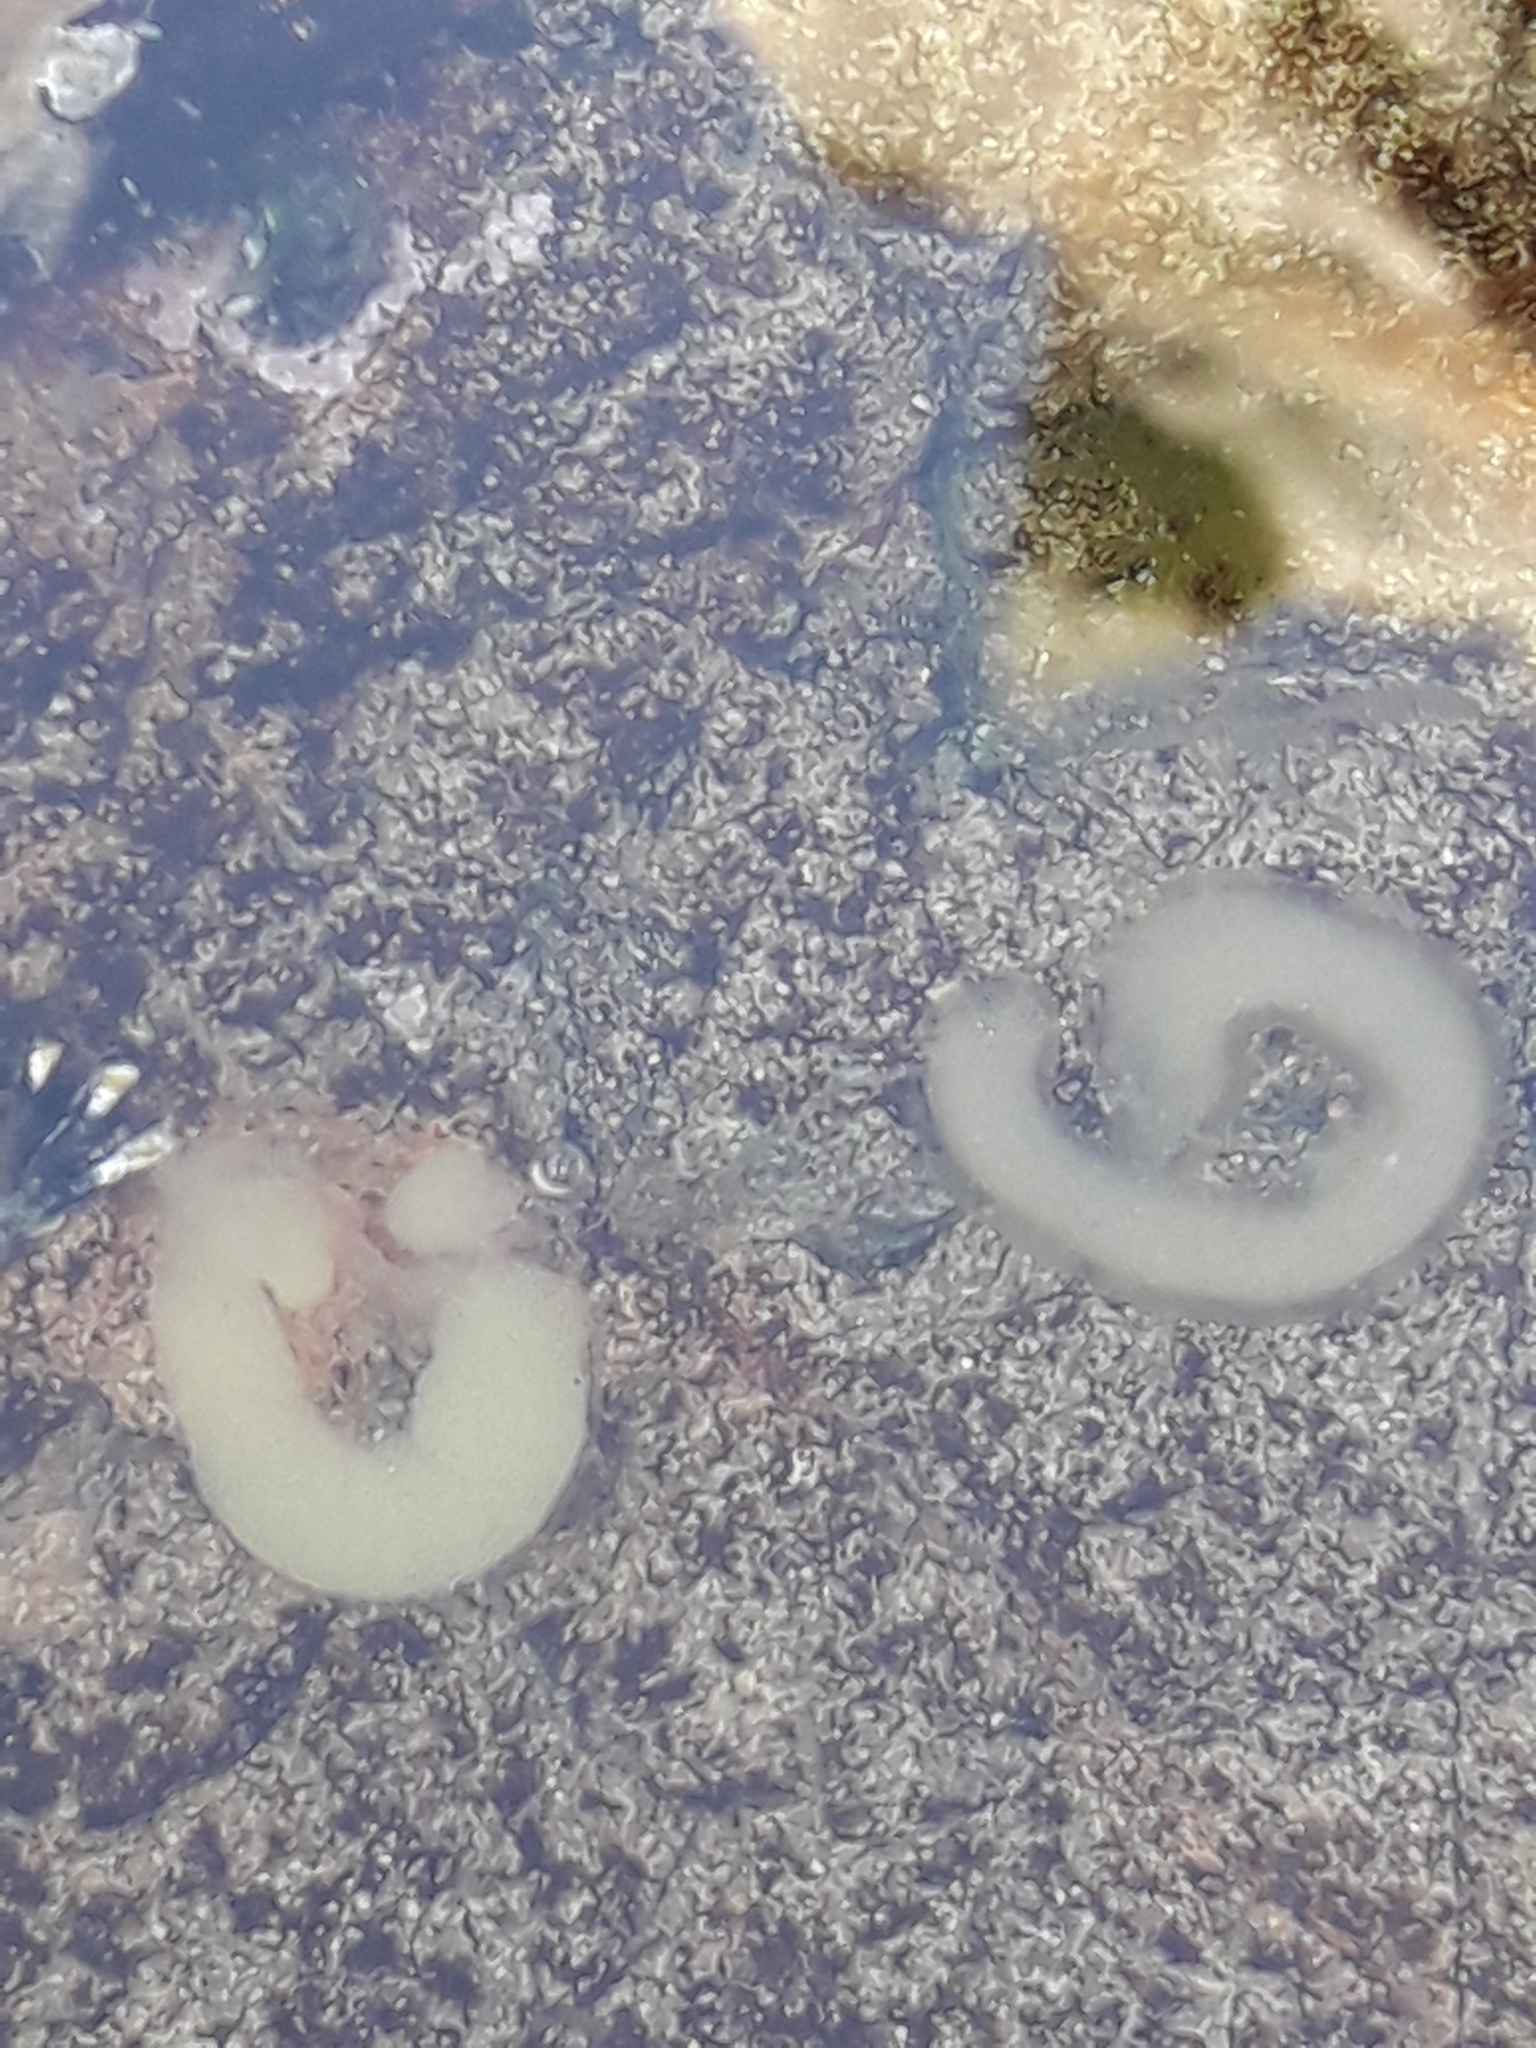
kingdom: Animalia
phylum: Mollusca
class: Gastropoda
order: Siphonariida
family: Siphonariidae
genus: Siphonaria
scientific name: Siphonaria australis
